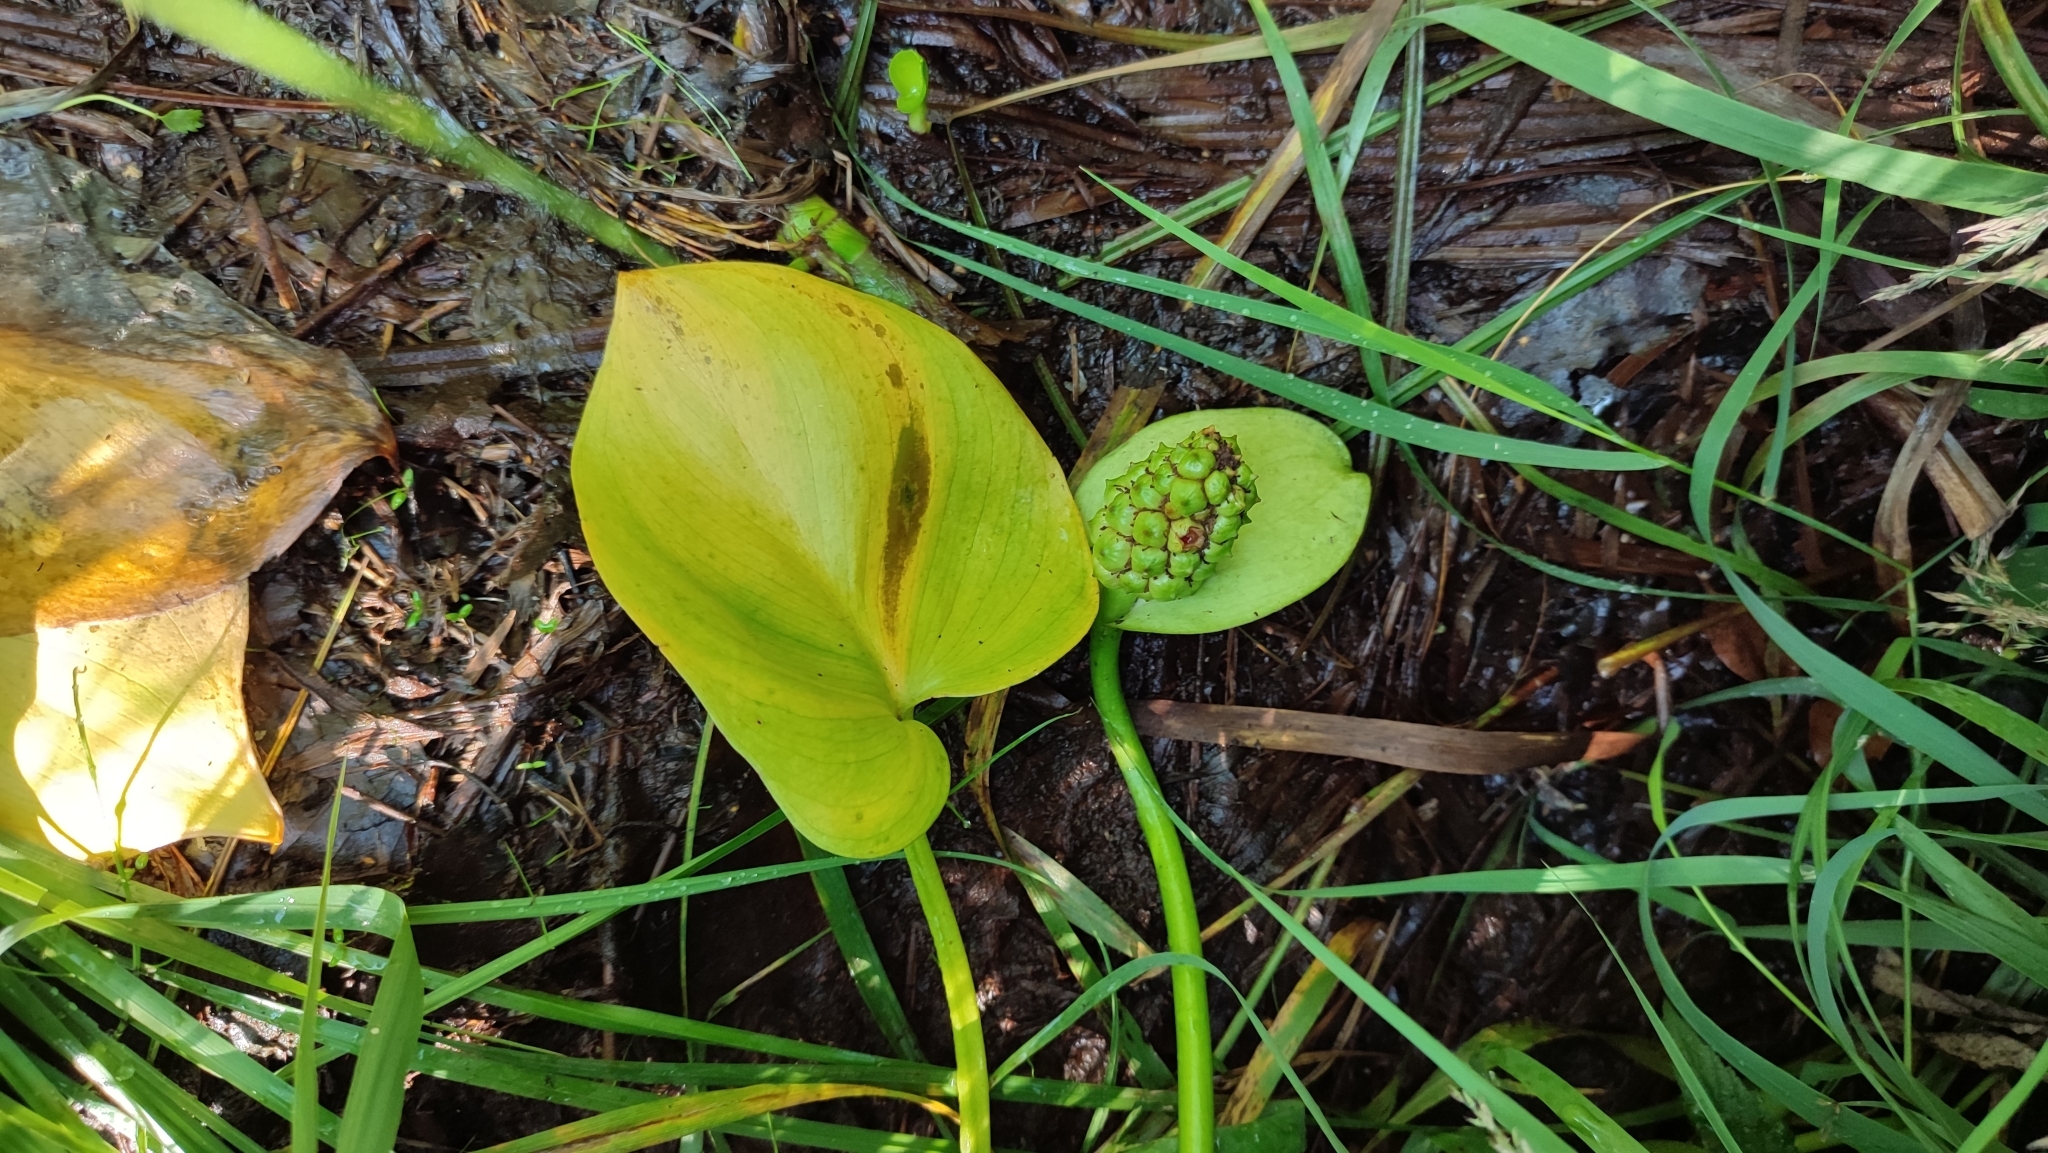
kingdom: Plantae
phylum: Tracheophyta
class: Liliopsida
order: Alismatales
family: Araceae
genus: Calla
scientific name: Calla palustris
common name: Bog arum
